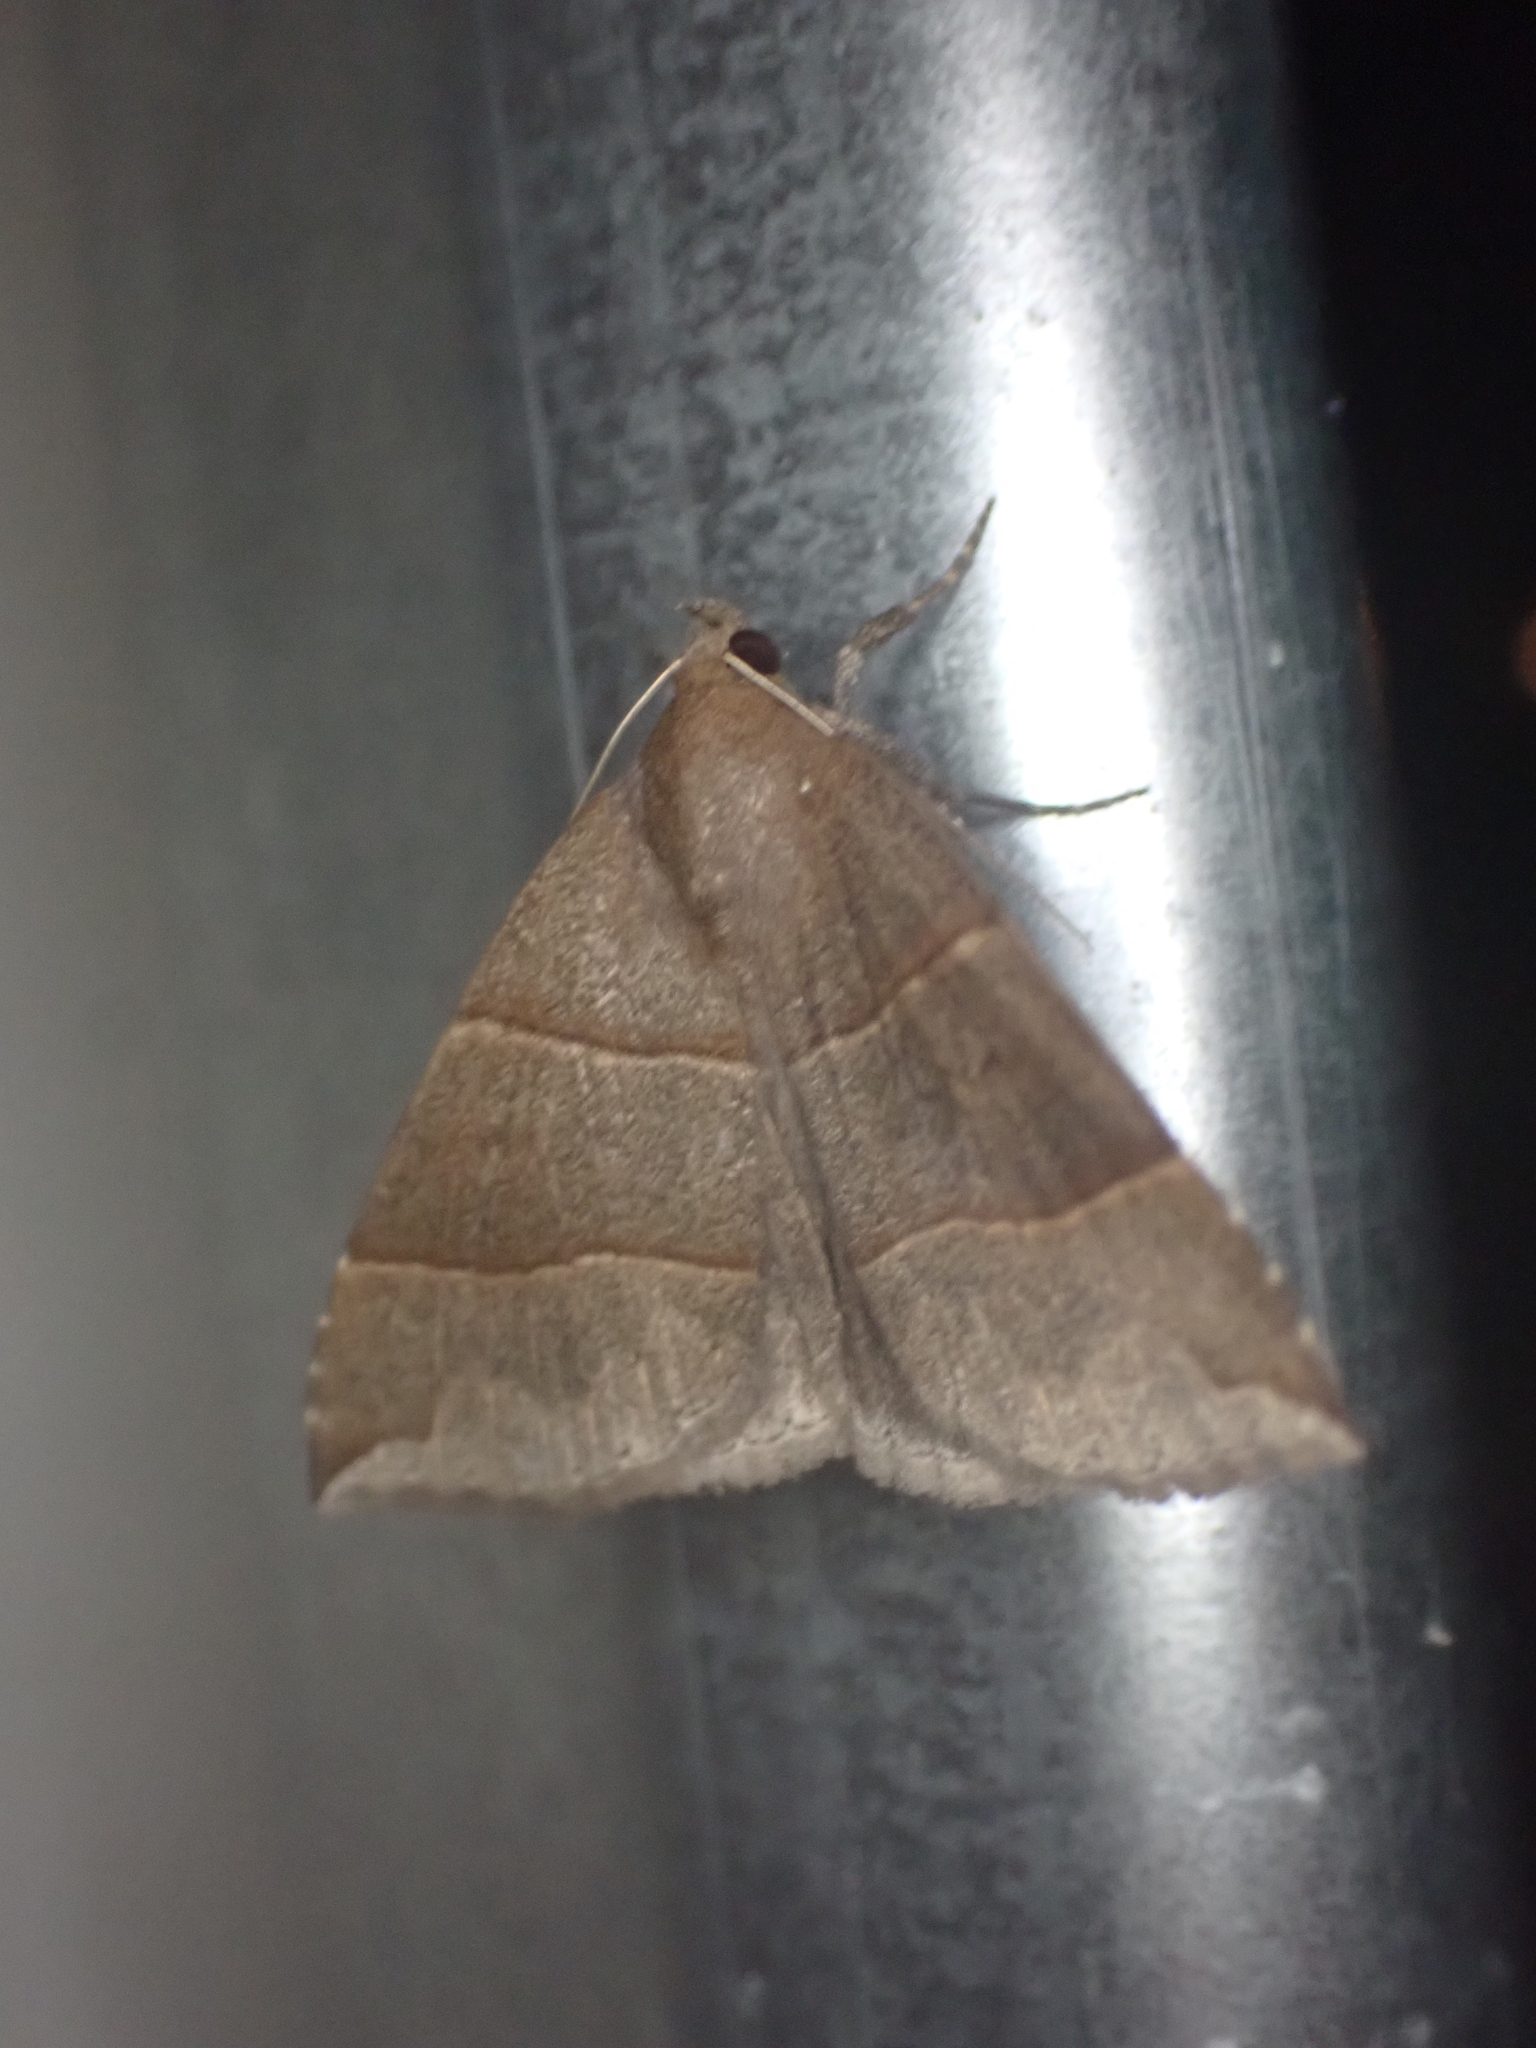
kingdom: Animalia
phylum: Arthropoda
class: Insecta
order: Lepidoptera
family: Erebidae
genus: Parallelia
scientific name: Parallelia bistriaris
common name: Maple looper moth
